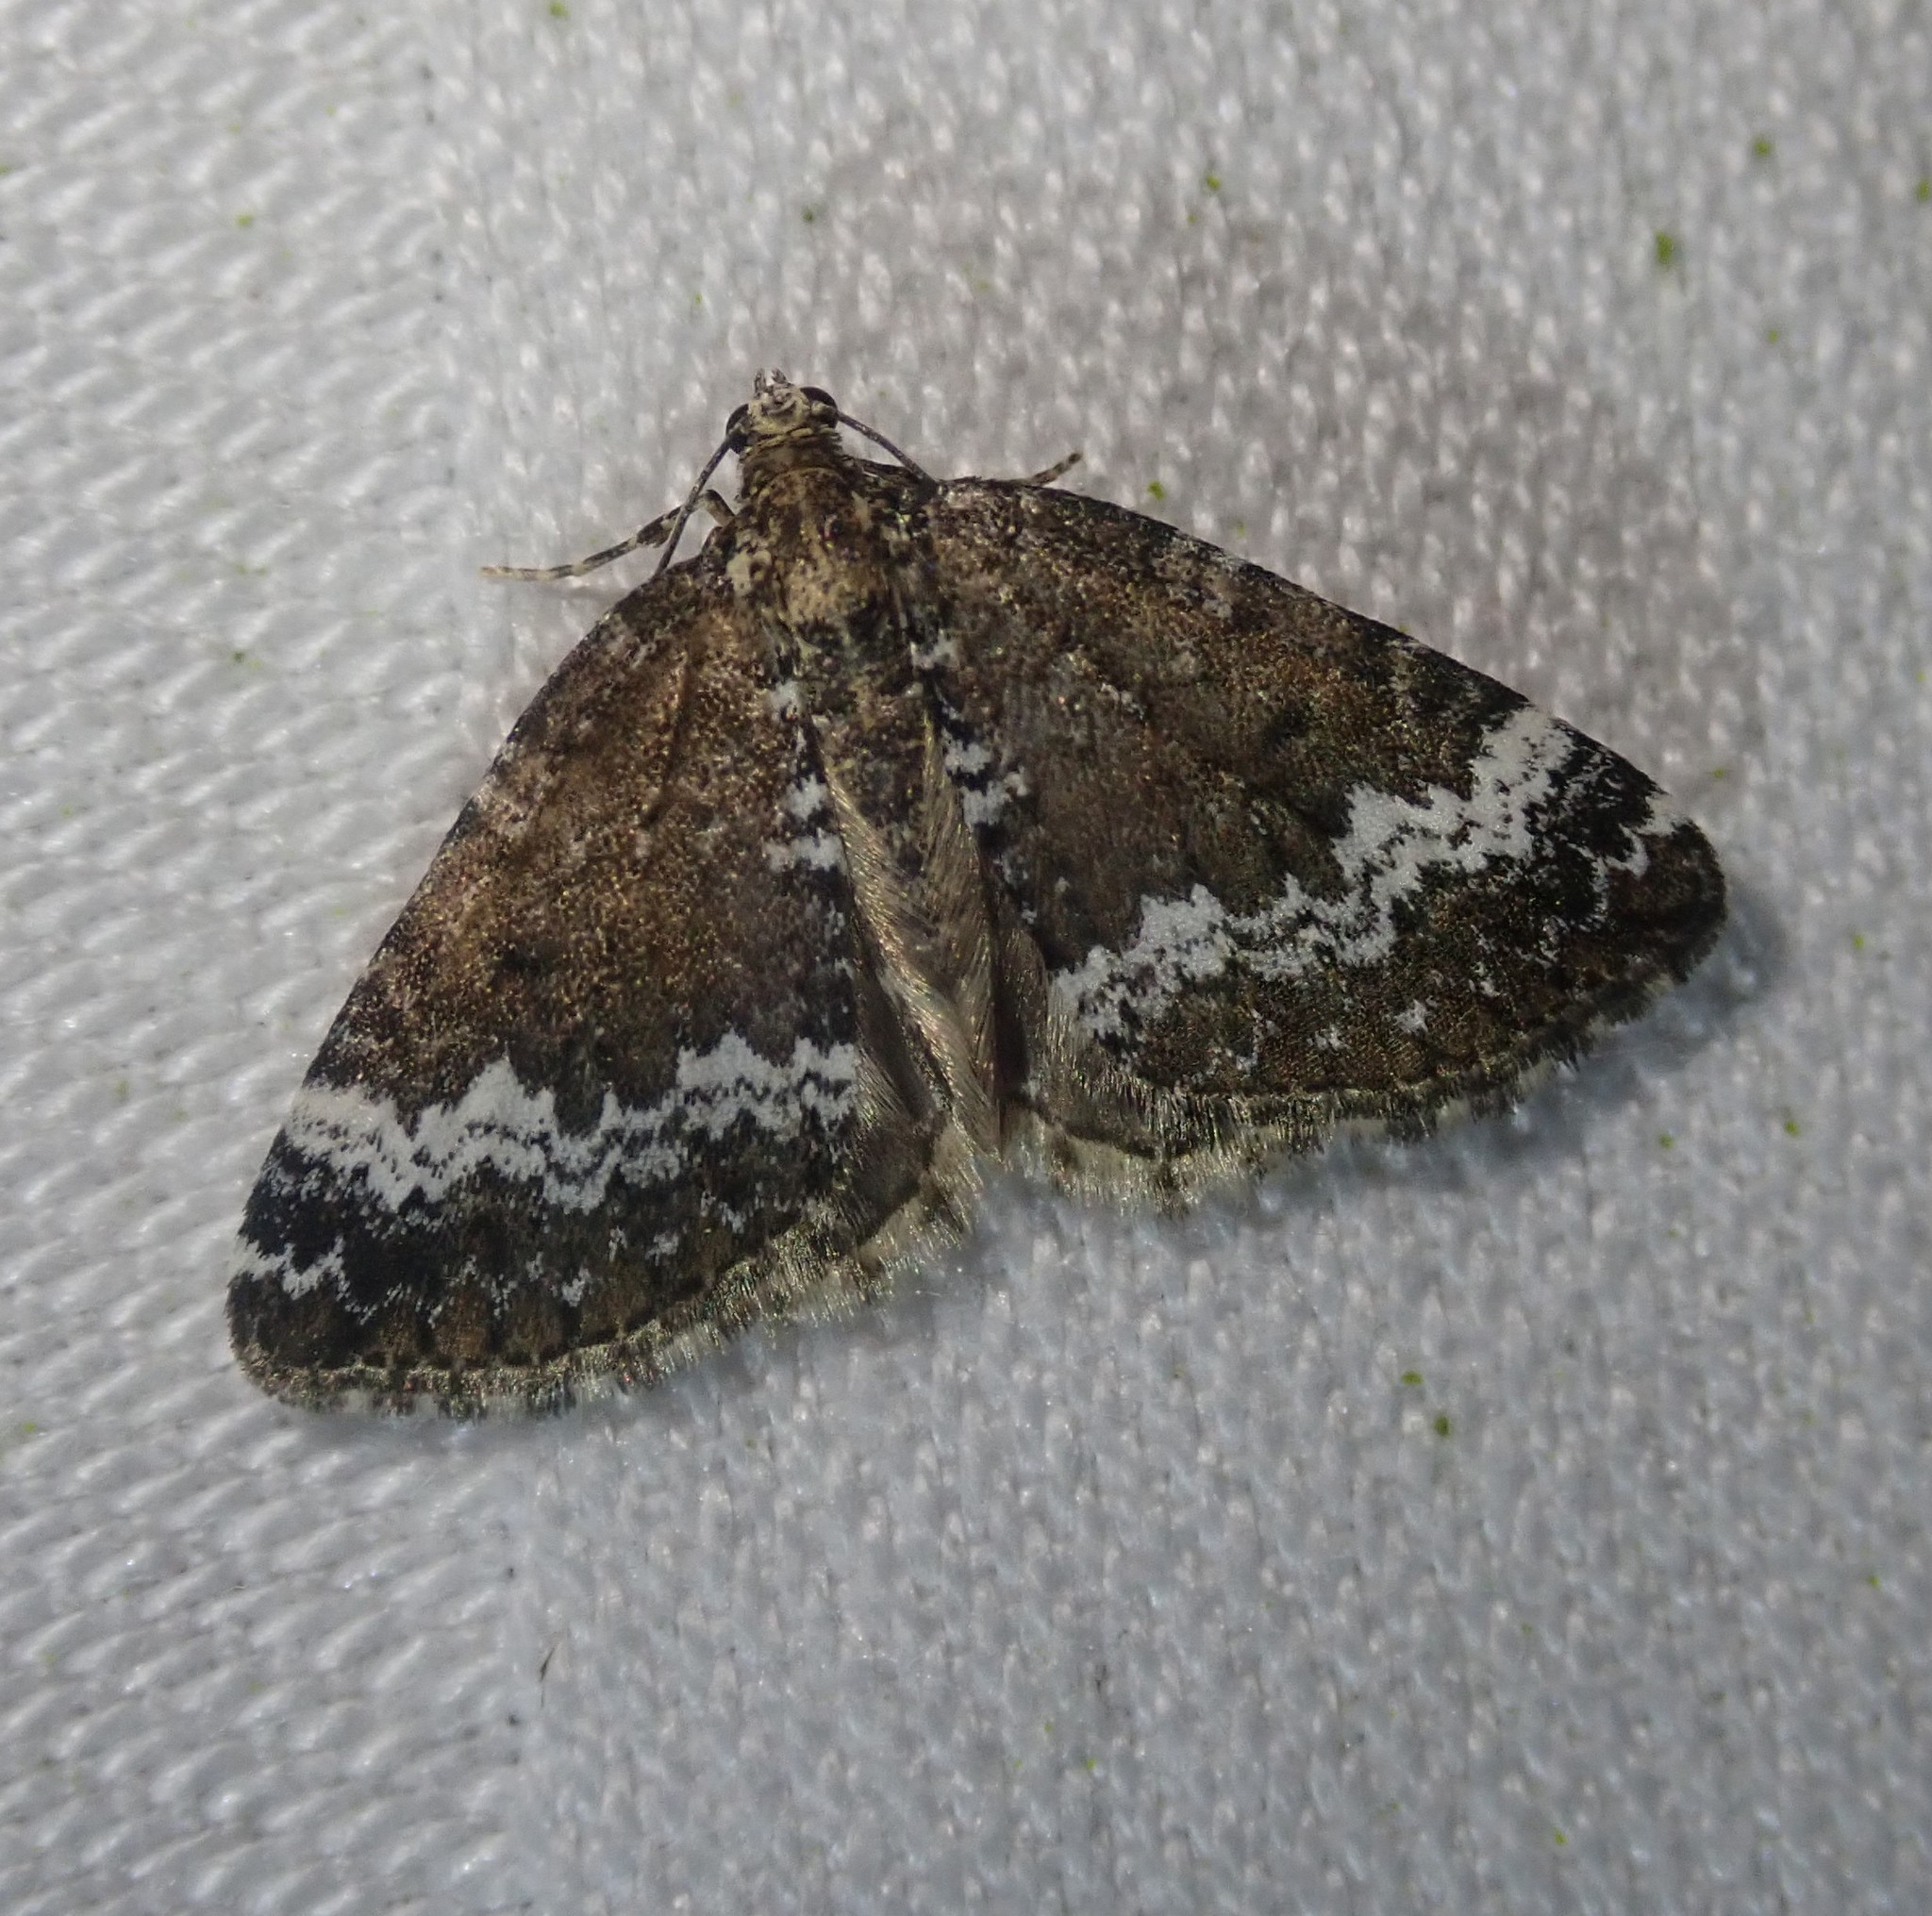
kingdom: Animalia
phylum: Arthropoda
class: Insecta
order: Lepidoptera
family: Geometridae
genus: Perizoma
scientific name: Perizoma alchemillata
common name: Small rivulet
